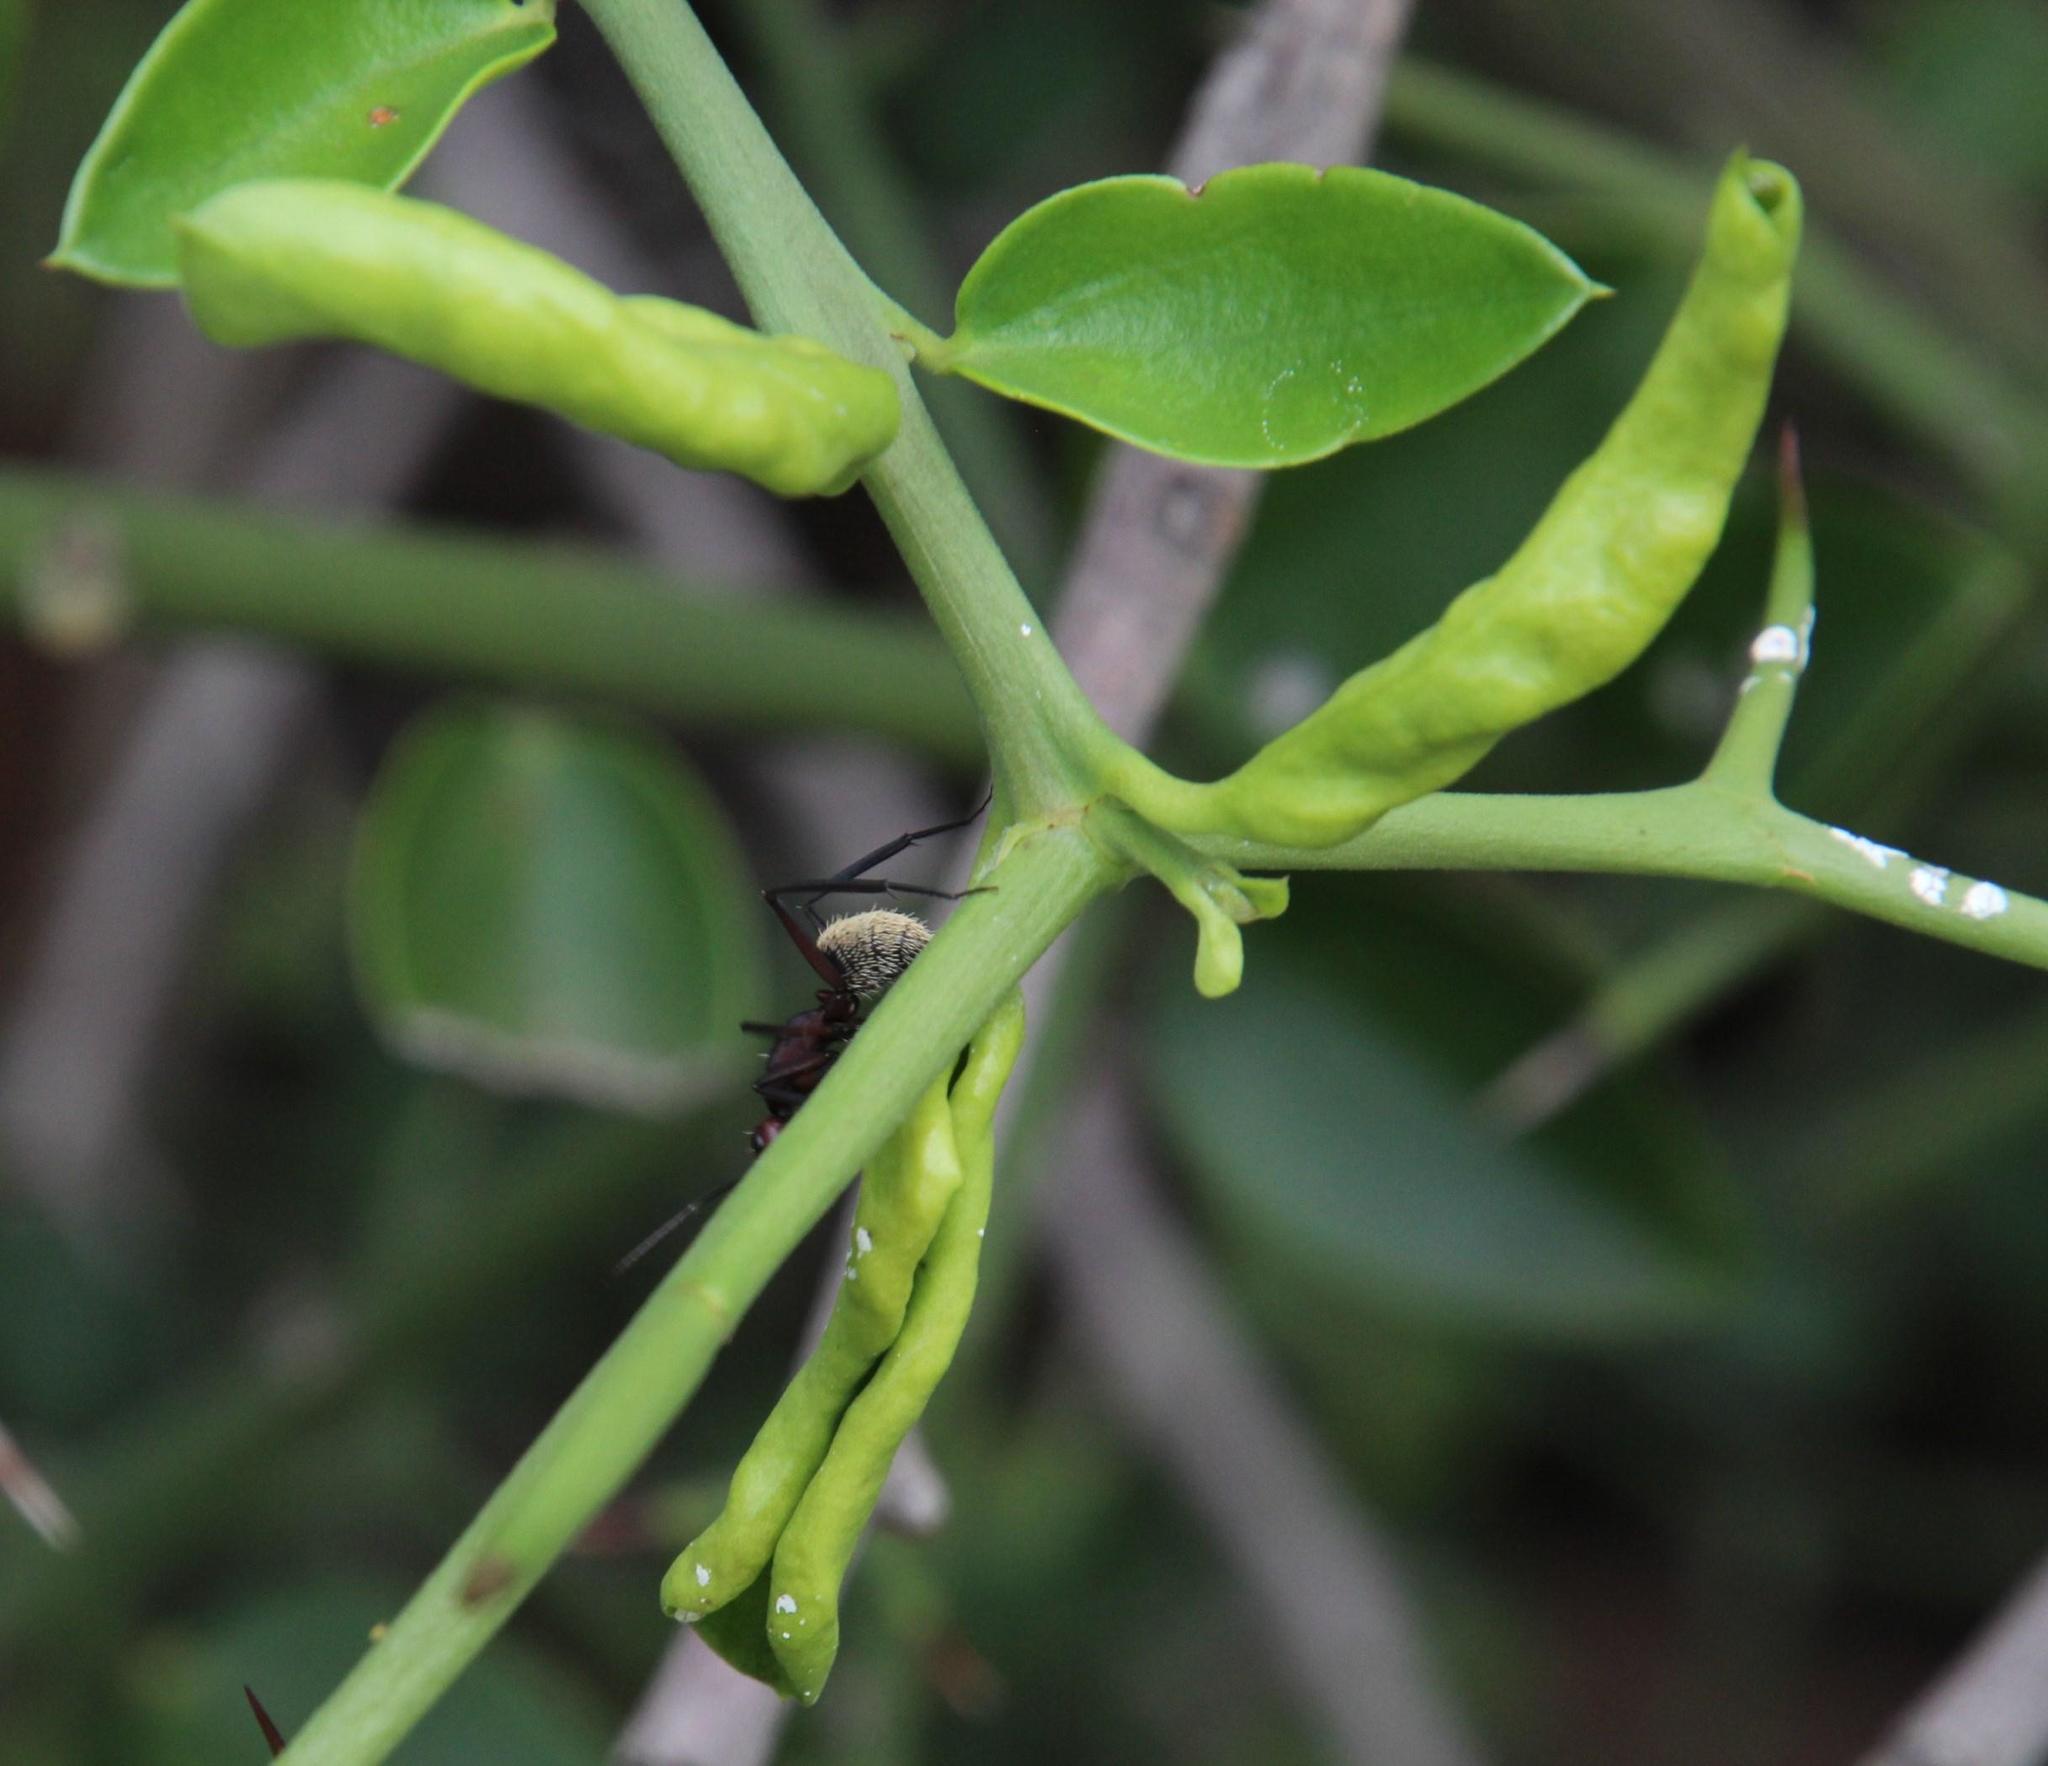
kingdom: Plantae
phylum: Tracheophyta
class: Magnoliopsida
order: Gentianales
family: Apocynaceae
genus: Carissa
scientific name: Carissa haematocarpa
